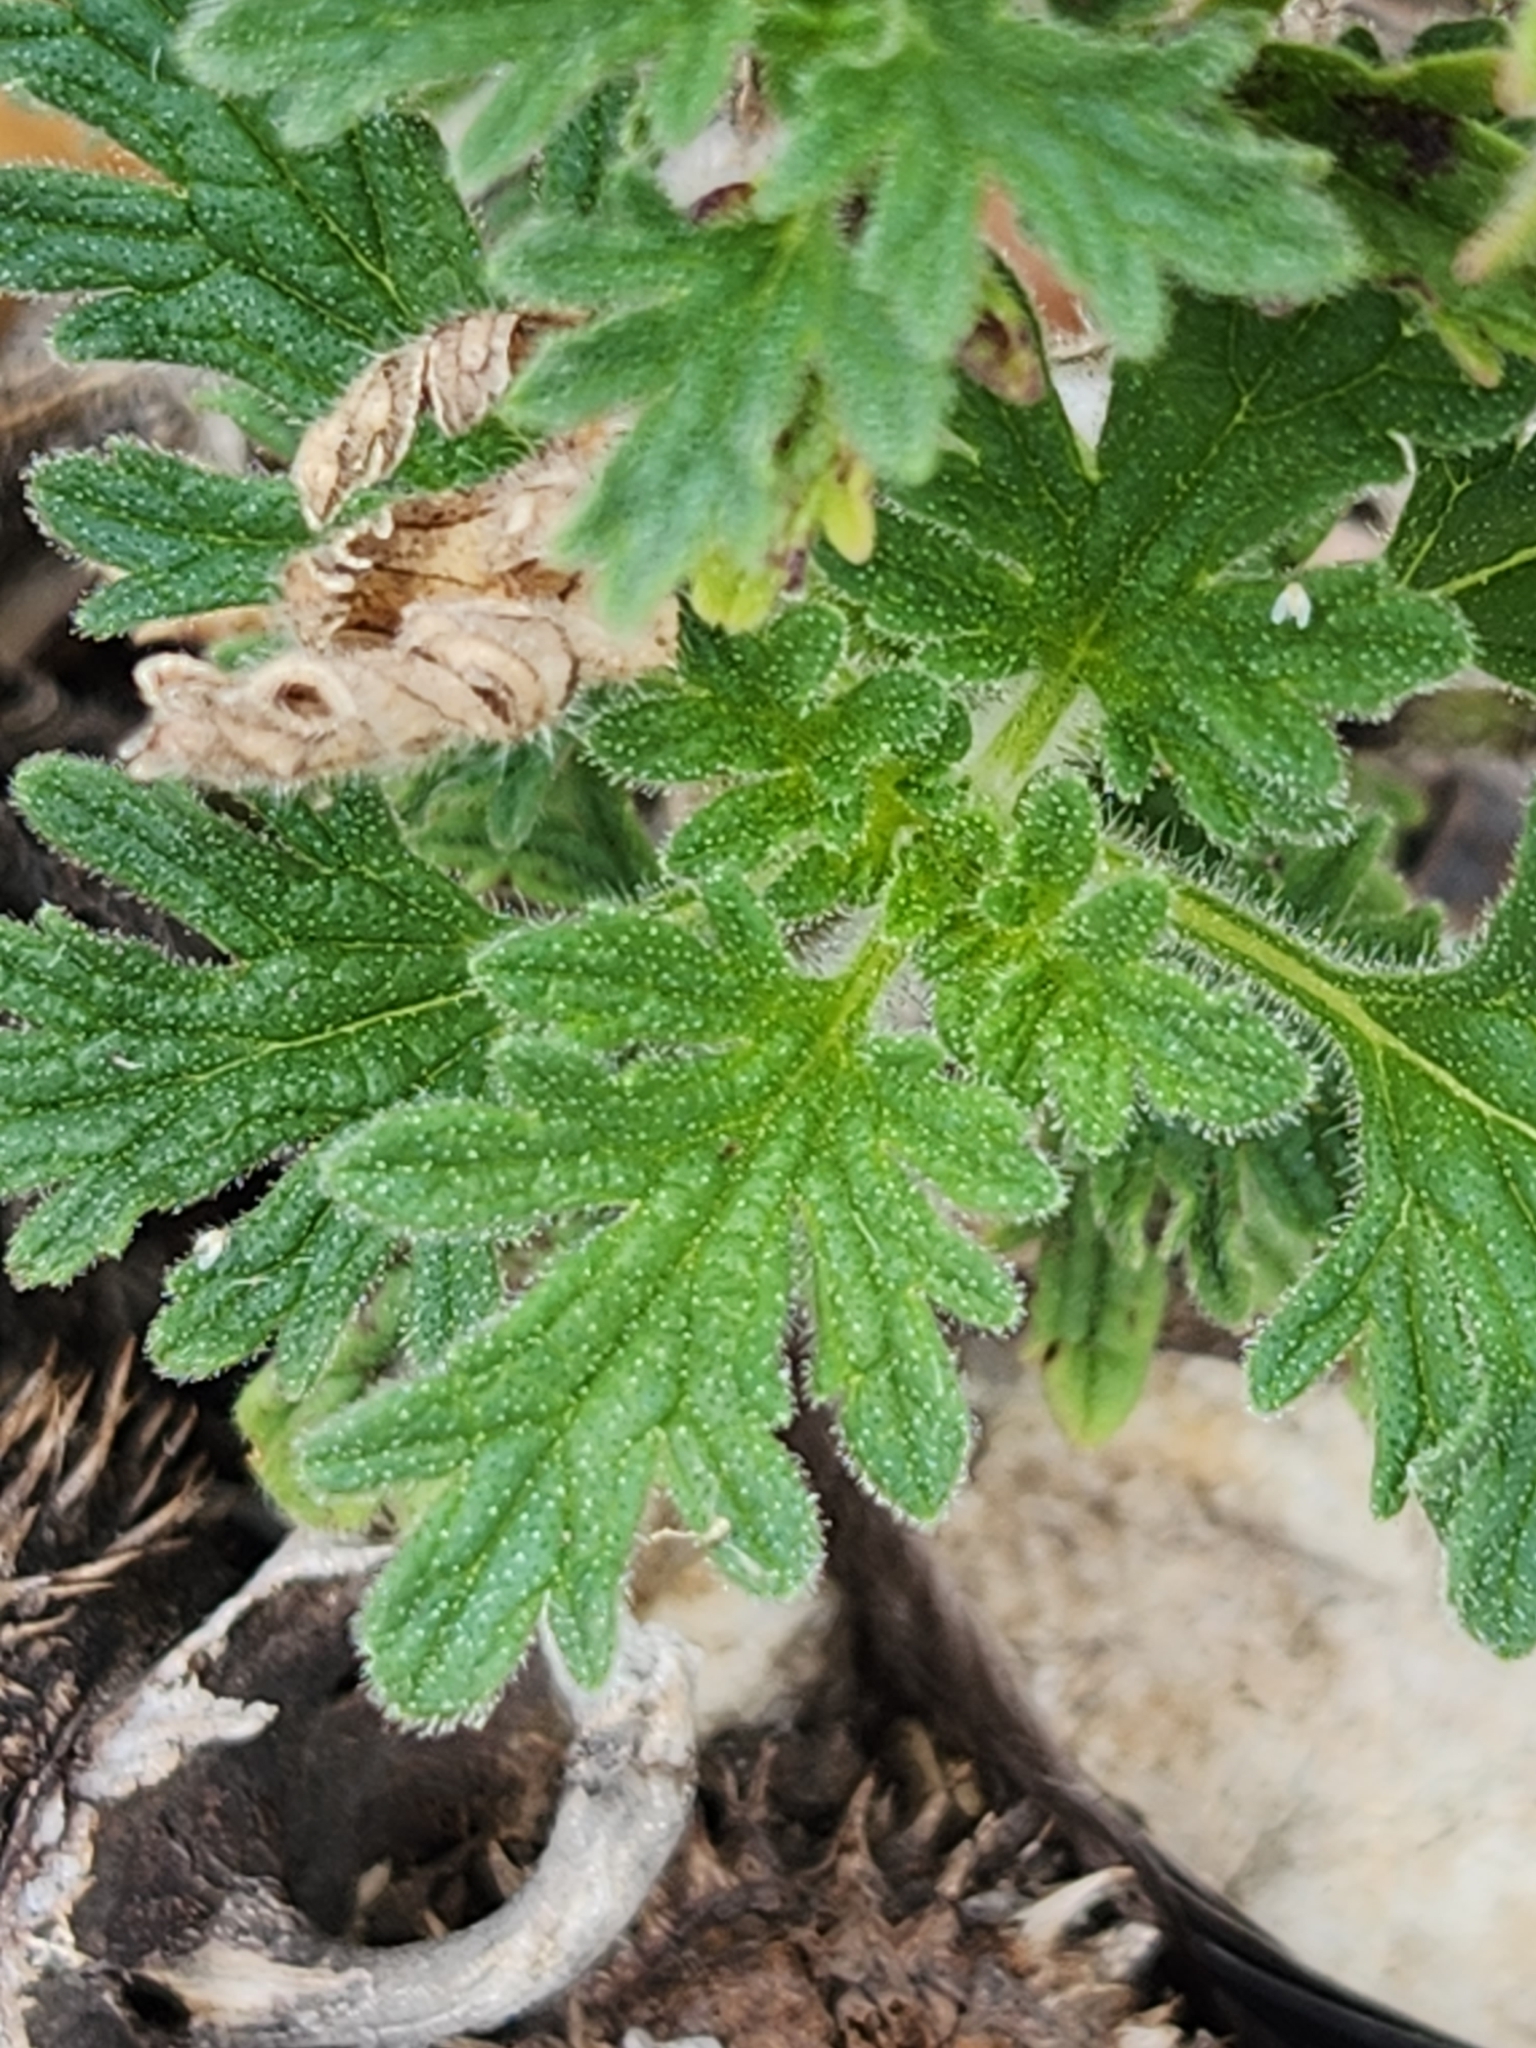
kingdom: Plantae
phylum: Tracheophyta
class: Magnoliopsida
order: Lamiales
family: Verbenaceae
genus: Verbena
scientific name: Verbena tumidula
